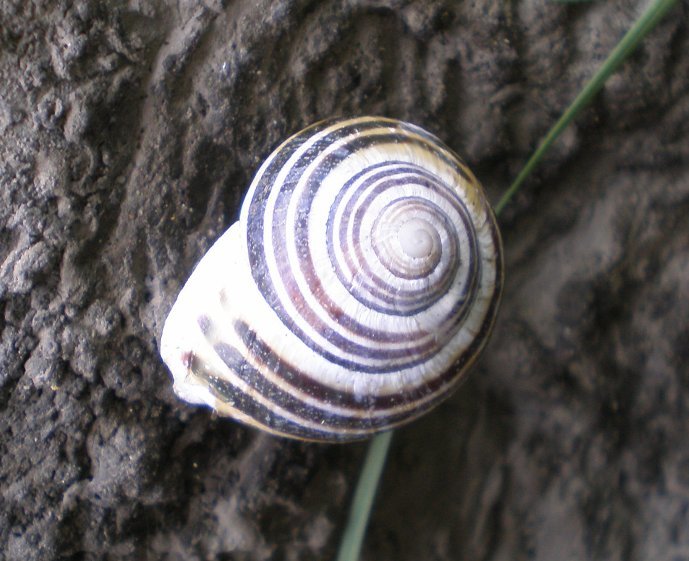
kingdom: Animalia
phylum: Mollusca
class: Gastropoda
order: Stylommatophora
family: Helicidae
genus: Cepaea
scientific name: Cepaea hortensis
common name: White-lip gardensnail
